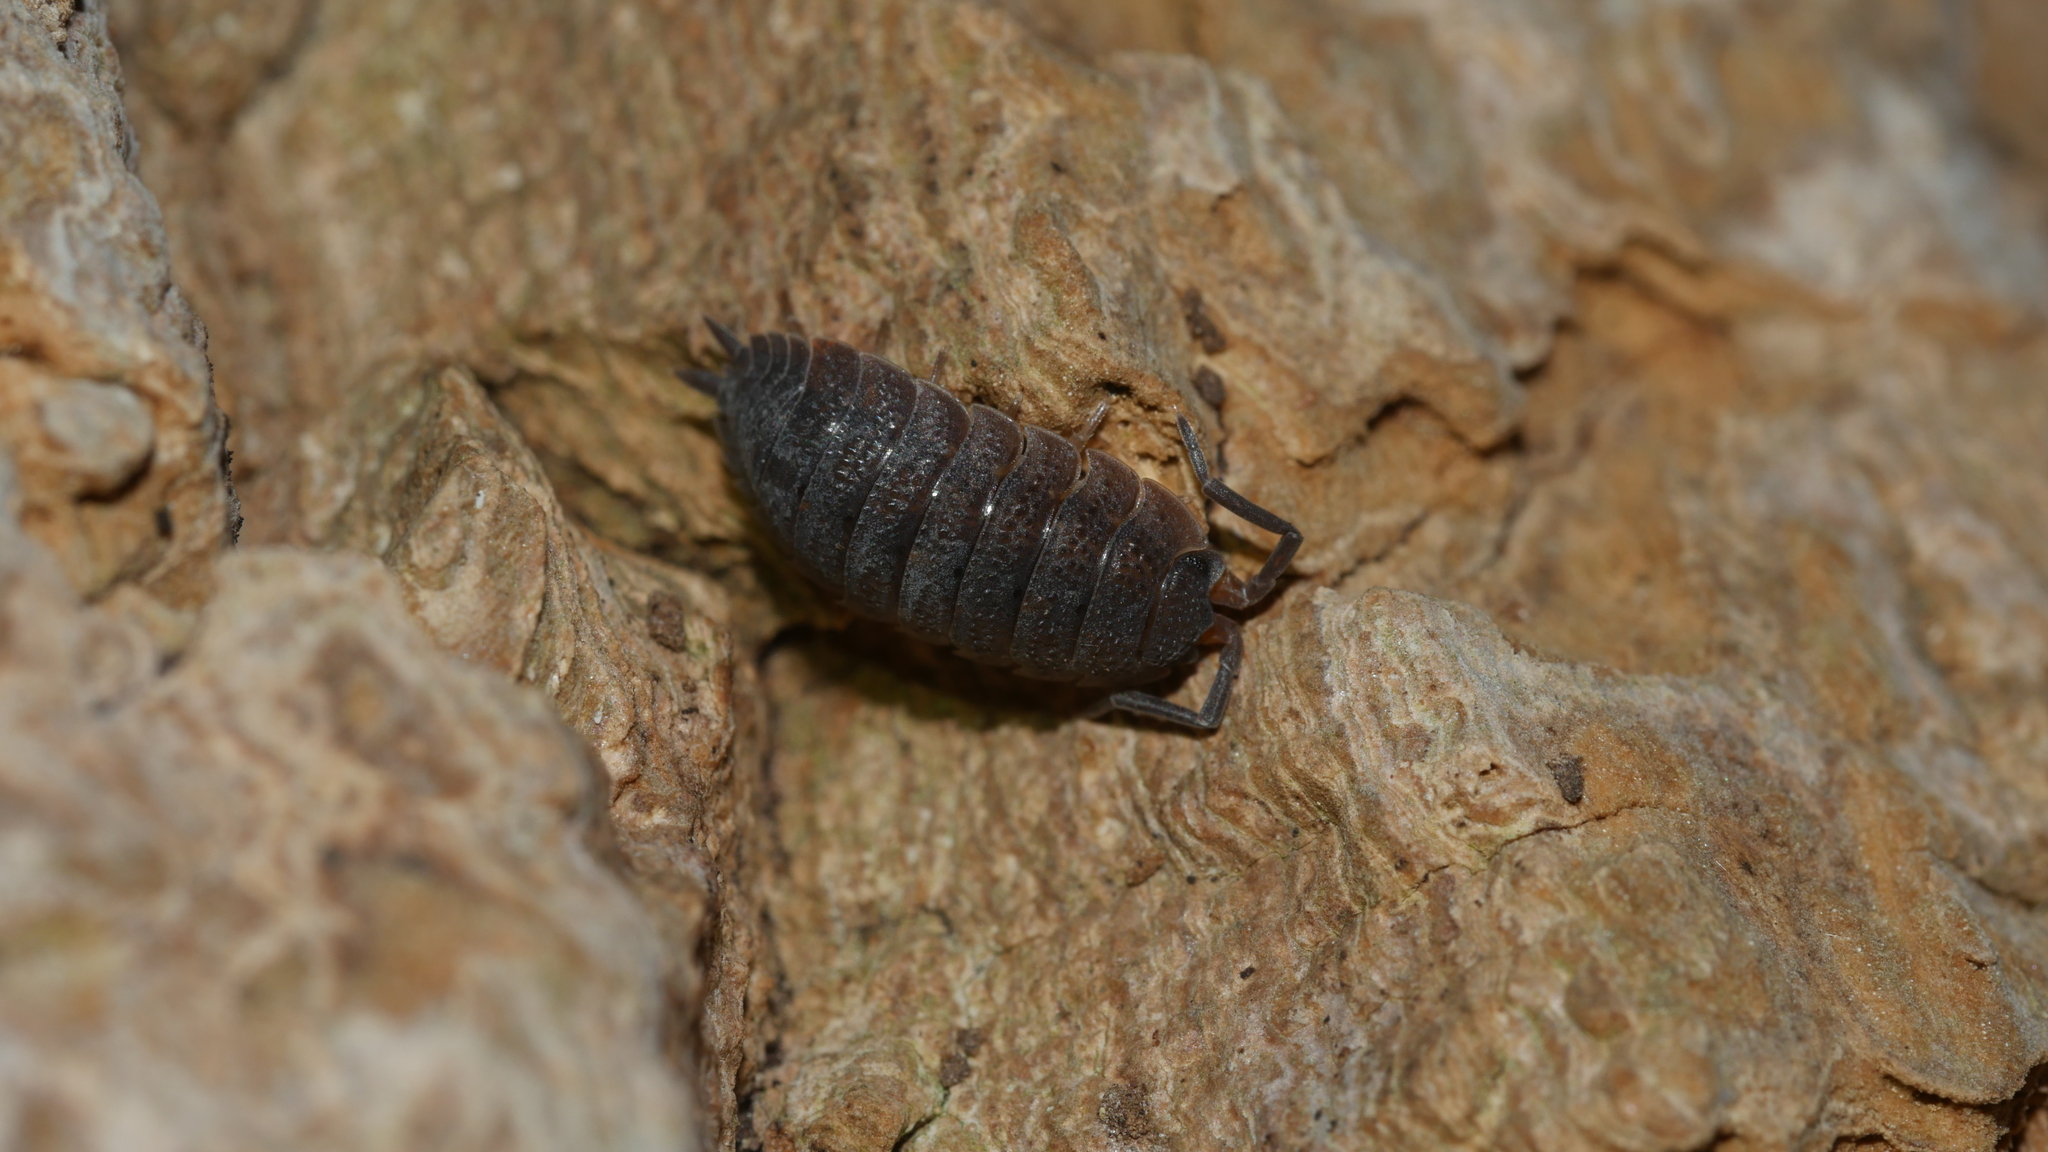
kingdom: Animalia
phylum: Arthropoda
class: Malacostraca
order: Isopoda
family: Porcellionidae
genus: Porcellio
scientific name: Porcellio scaber
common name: Common rough woodlouse
